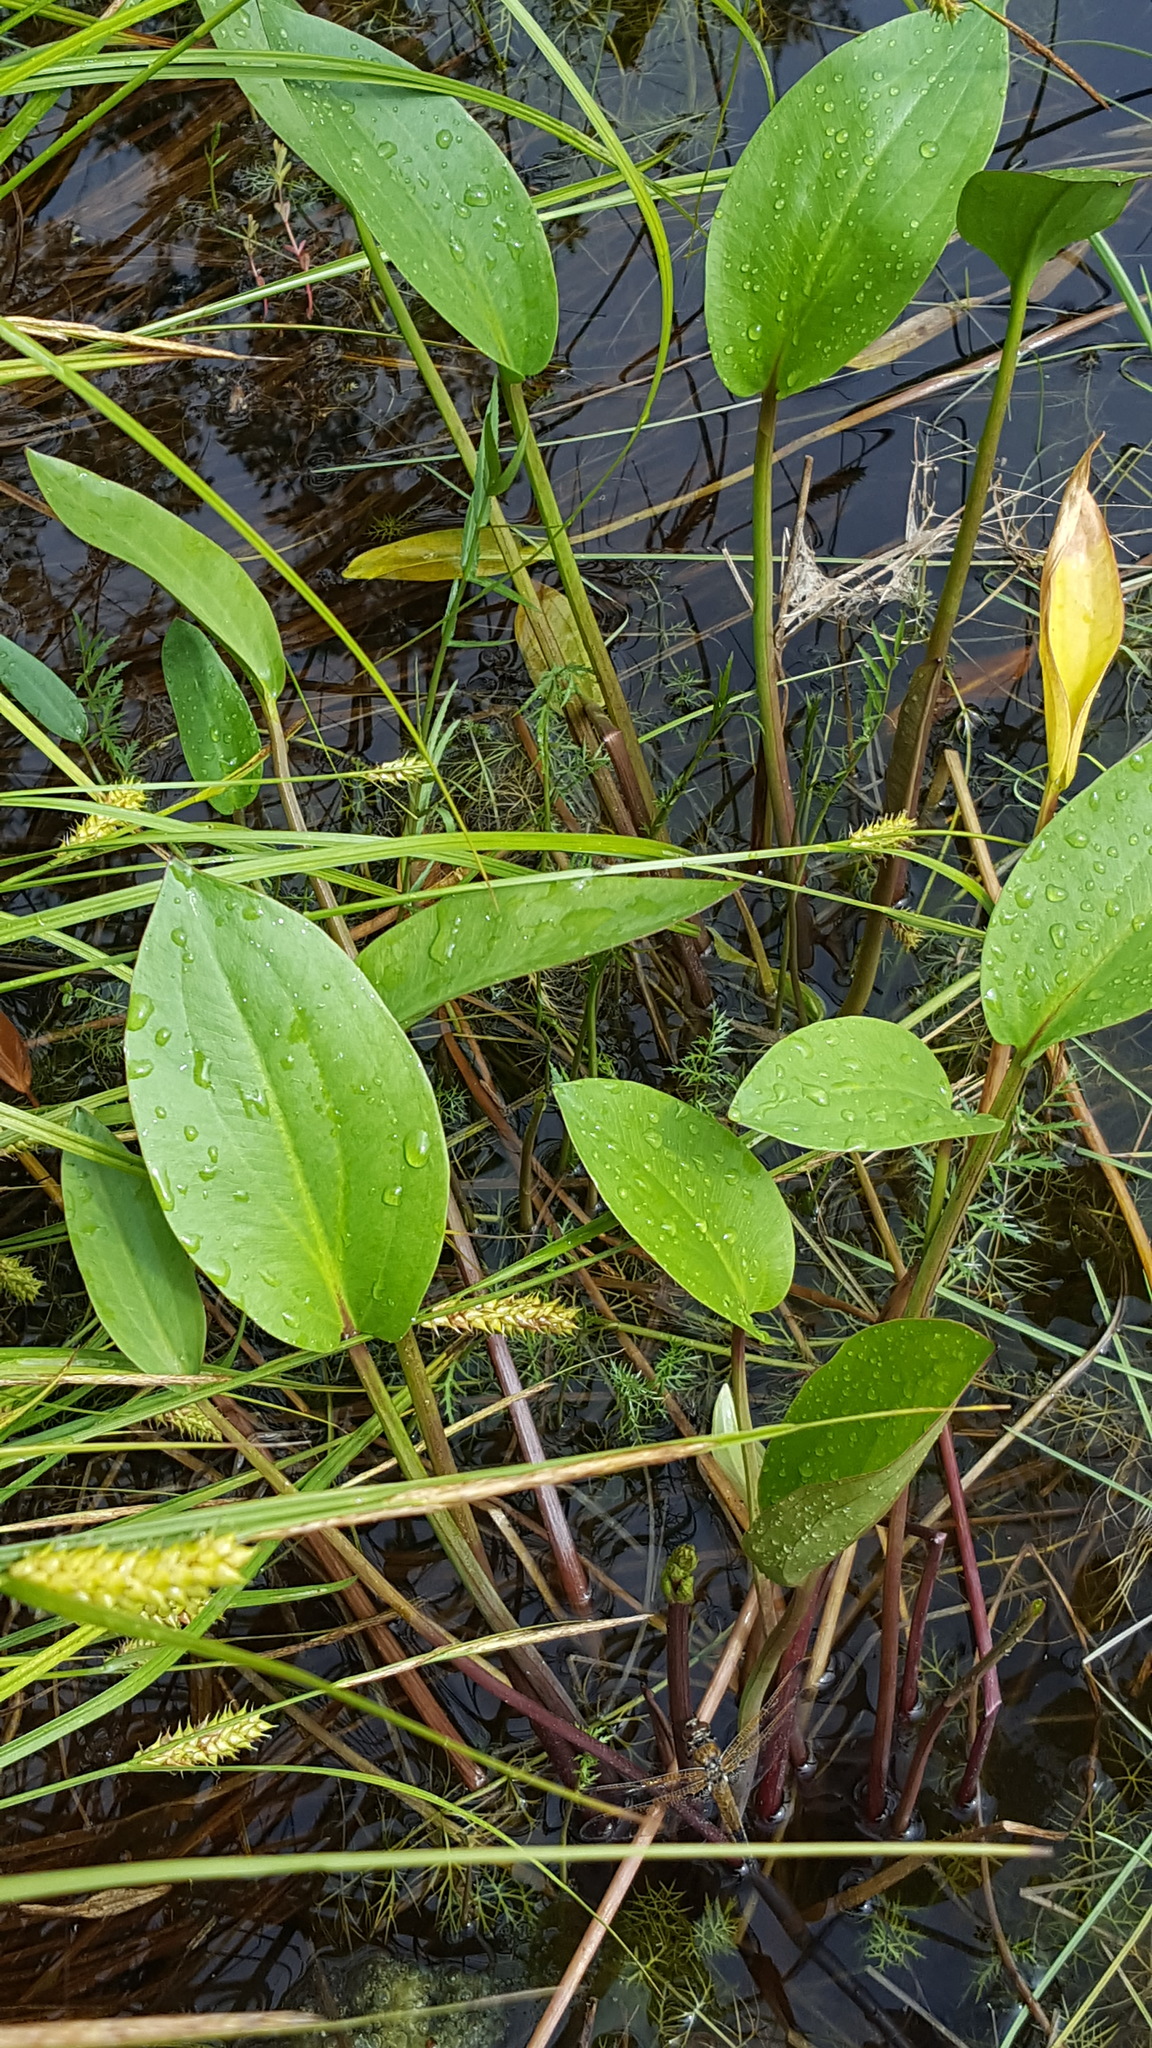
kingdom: Plantae
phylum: Tracheophyta
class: Liliopsida
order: Alismatales
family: Alismataceae
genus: Alisma
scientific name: Alisma triviale
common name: Northern water-plantain
